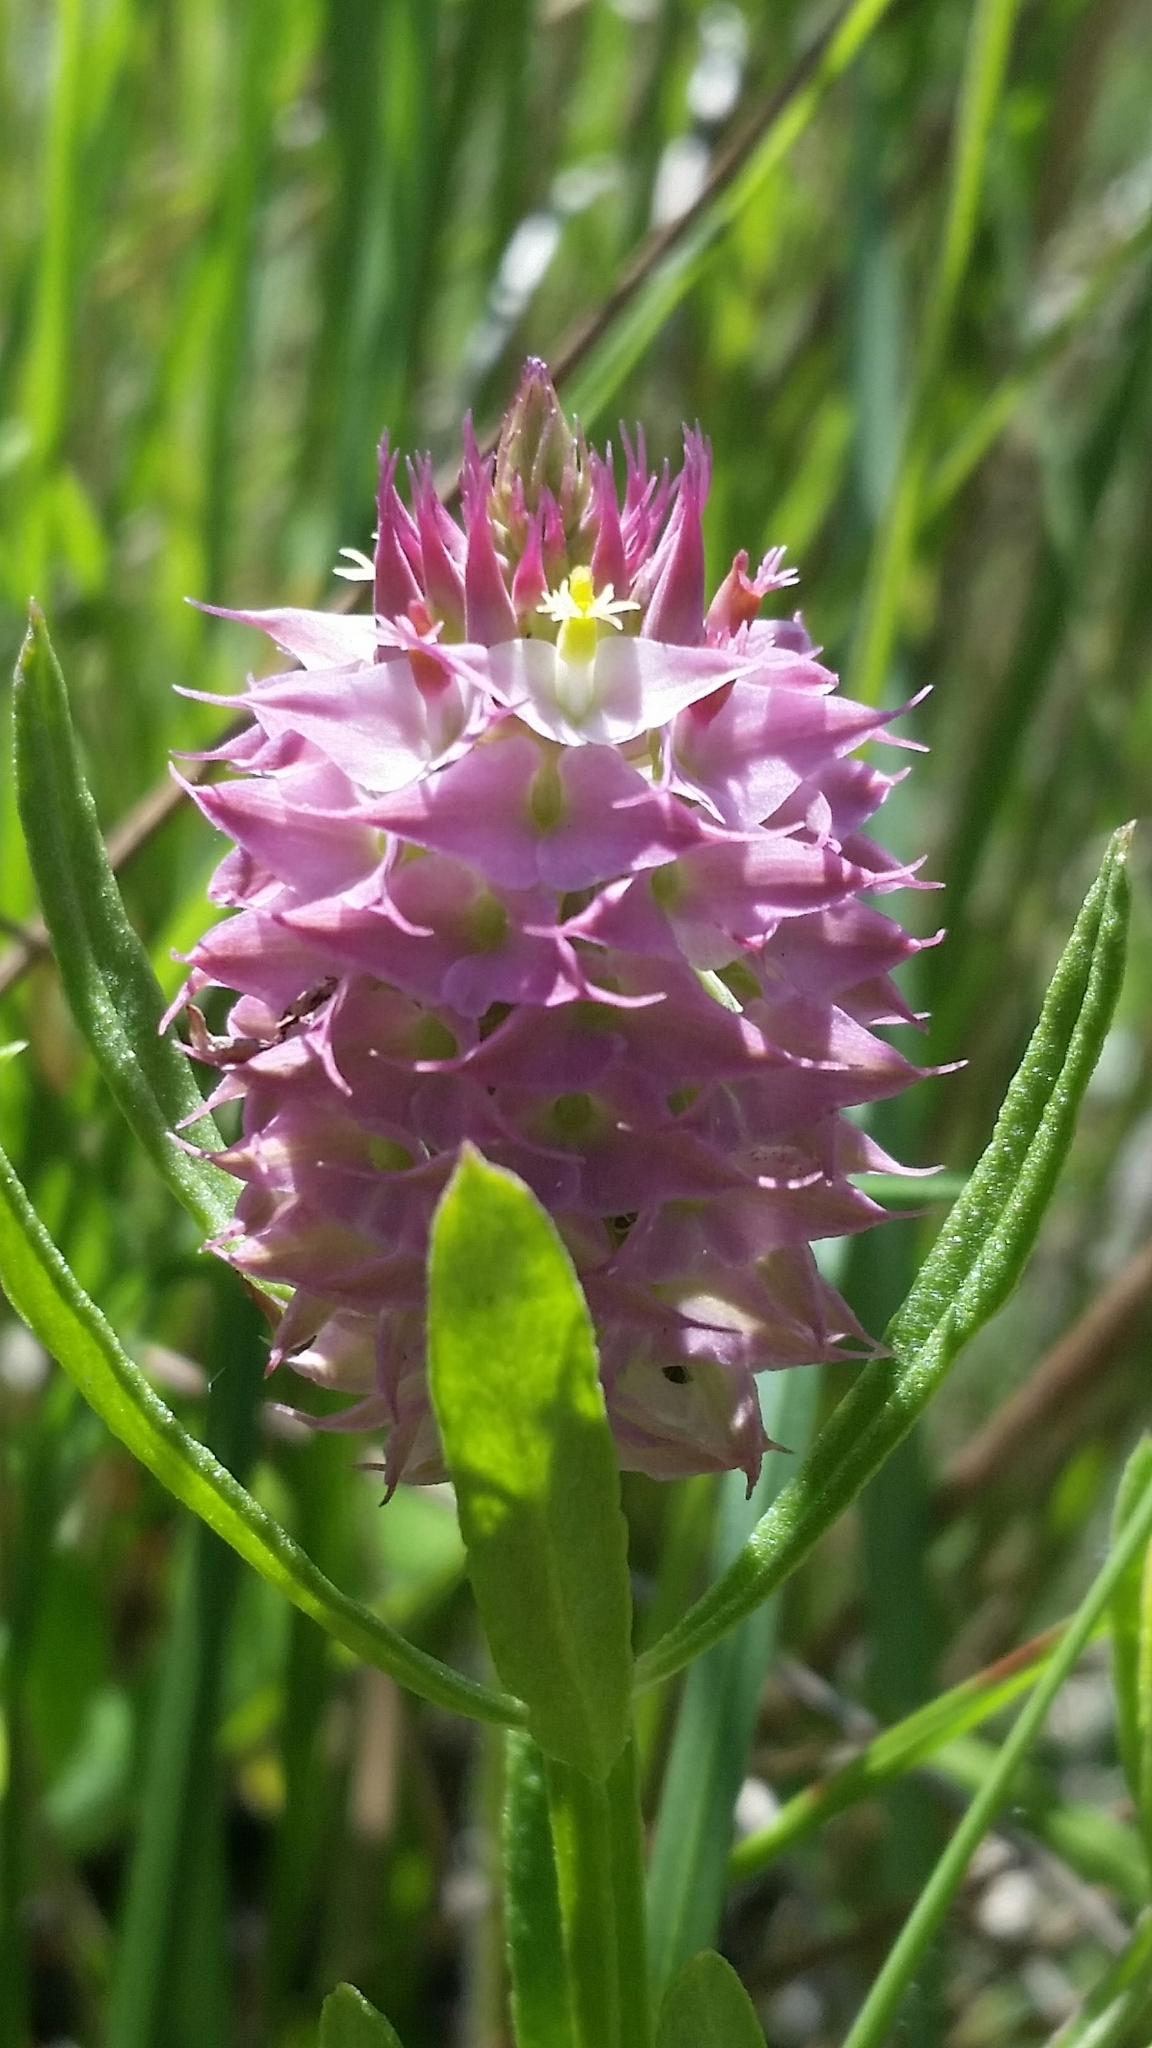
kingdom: Plantae
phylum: Tracheophyta
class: Magnoliopsida
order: Fabales
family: Polygalaceae
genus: Polygala
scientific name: Polygala cruciata
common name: Drumheads
